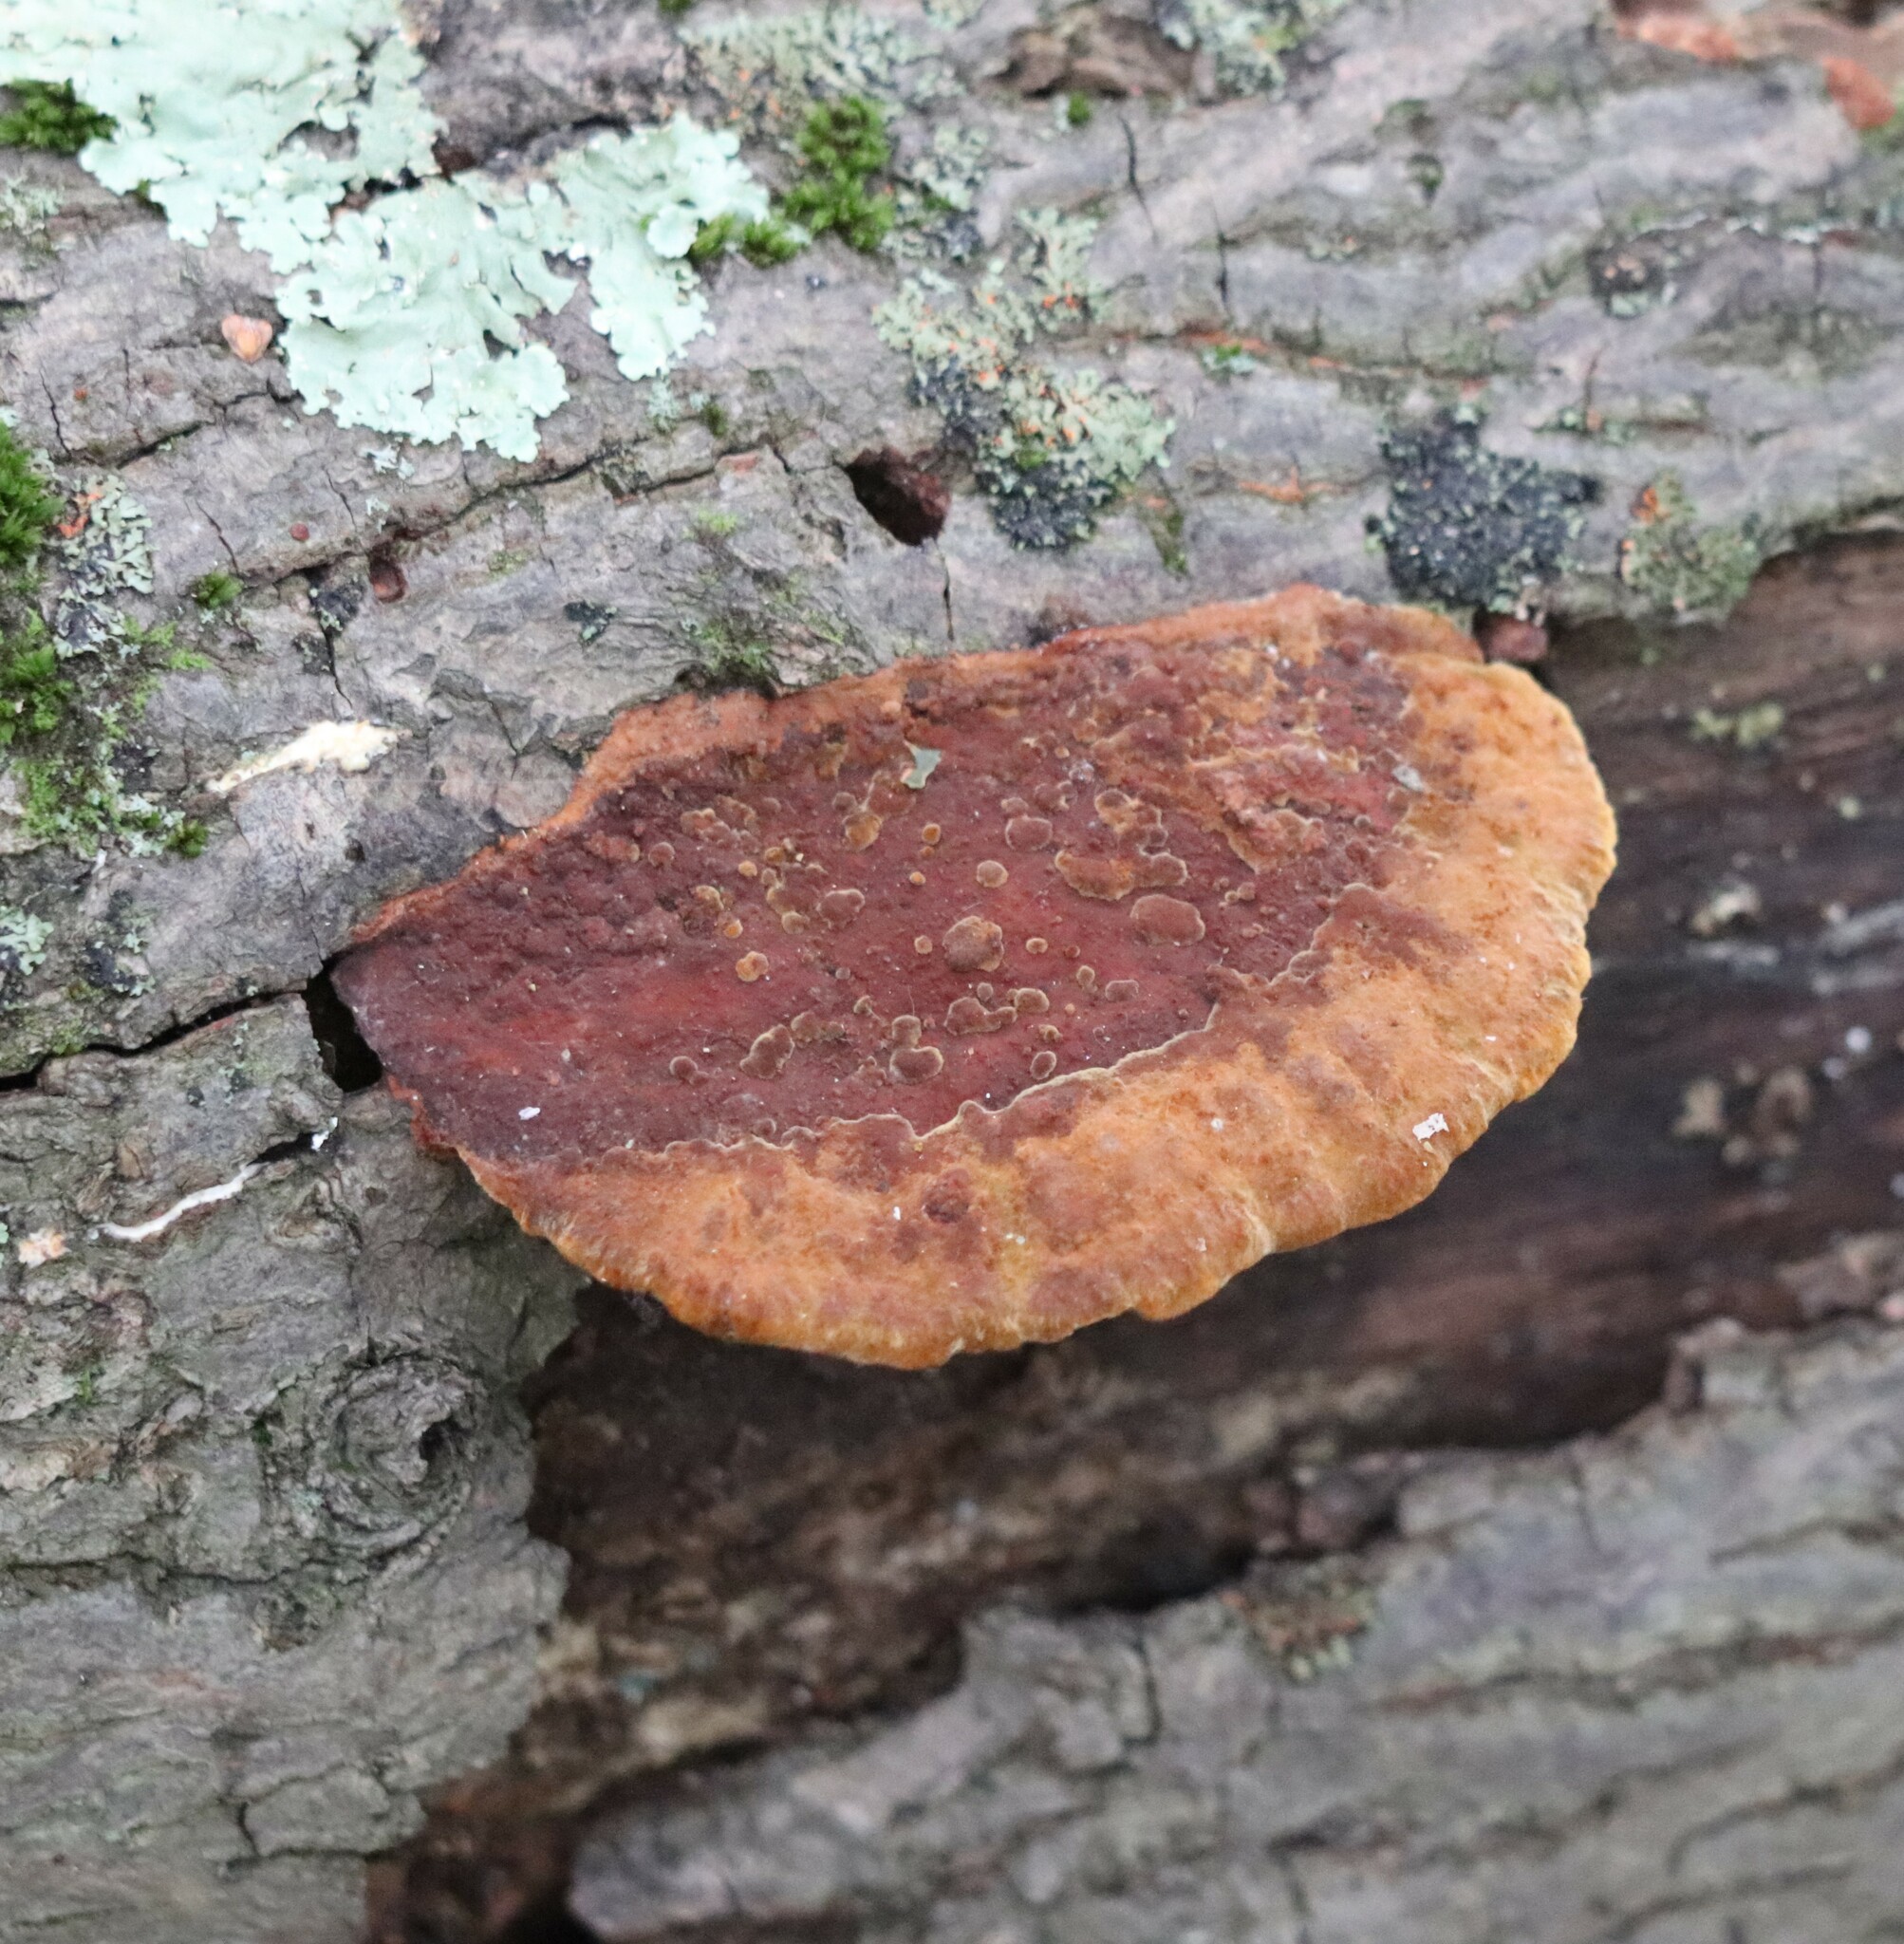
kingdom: Fungi
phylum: Basidiomycota
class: Agaricomycetes
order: Hymenochaetales
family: Hymenochaetaceae
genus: Phellinus
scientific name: Phellinus gilvus
